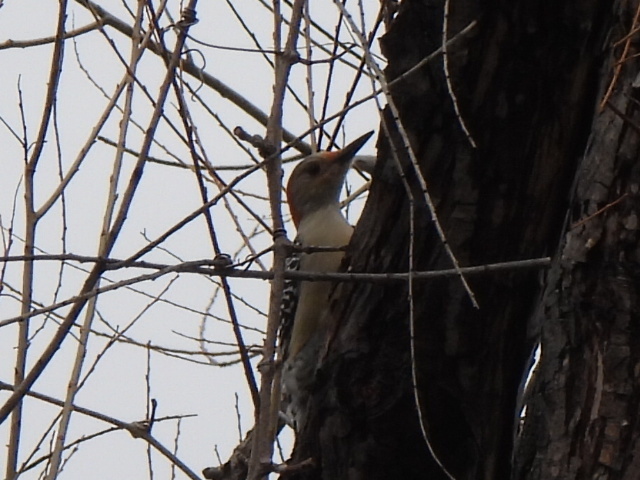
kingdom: Animalia
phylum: Chordata
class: Aves
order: Piciformes
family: Picidae
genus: Melanerpes
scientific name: Melanerpes carolinus
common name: Red-bellied woodpecker
